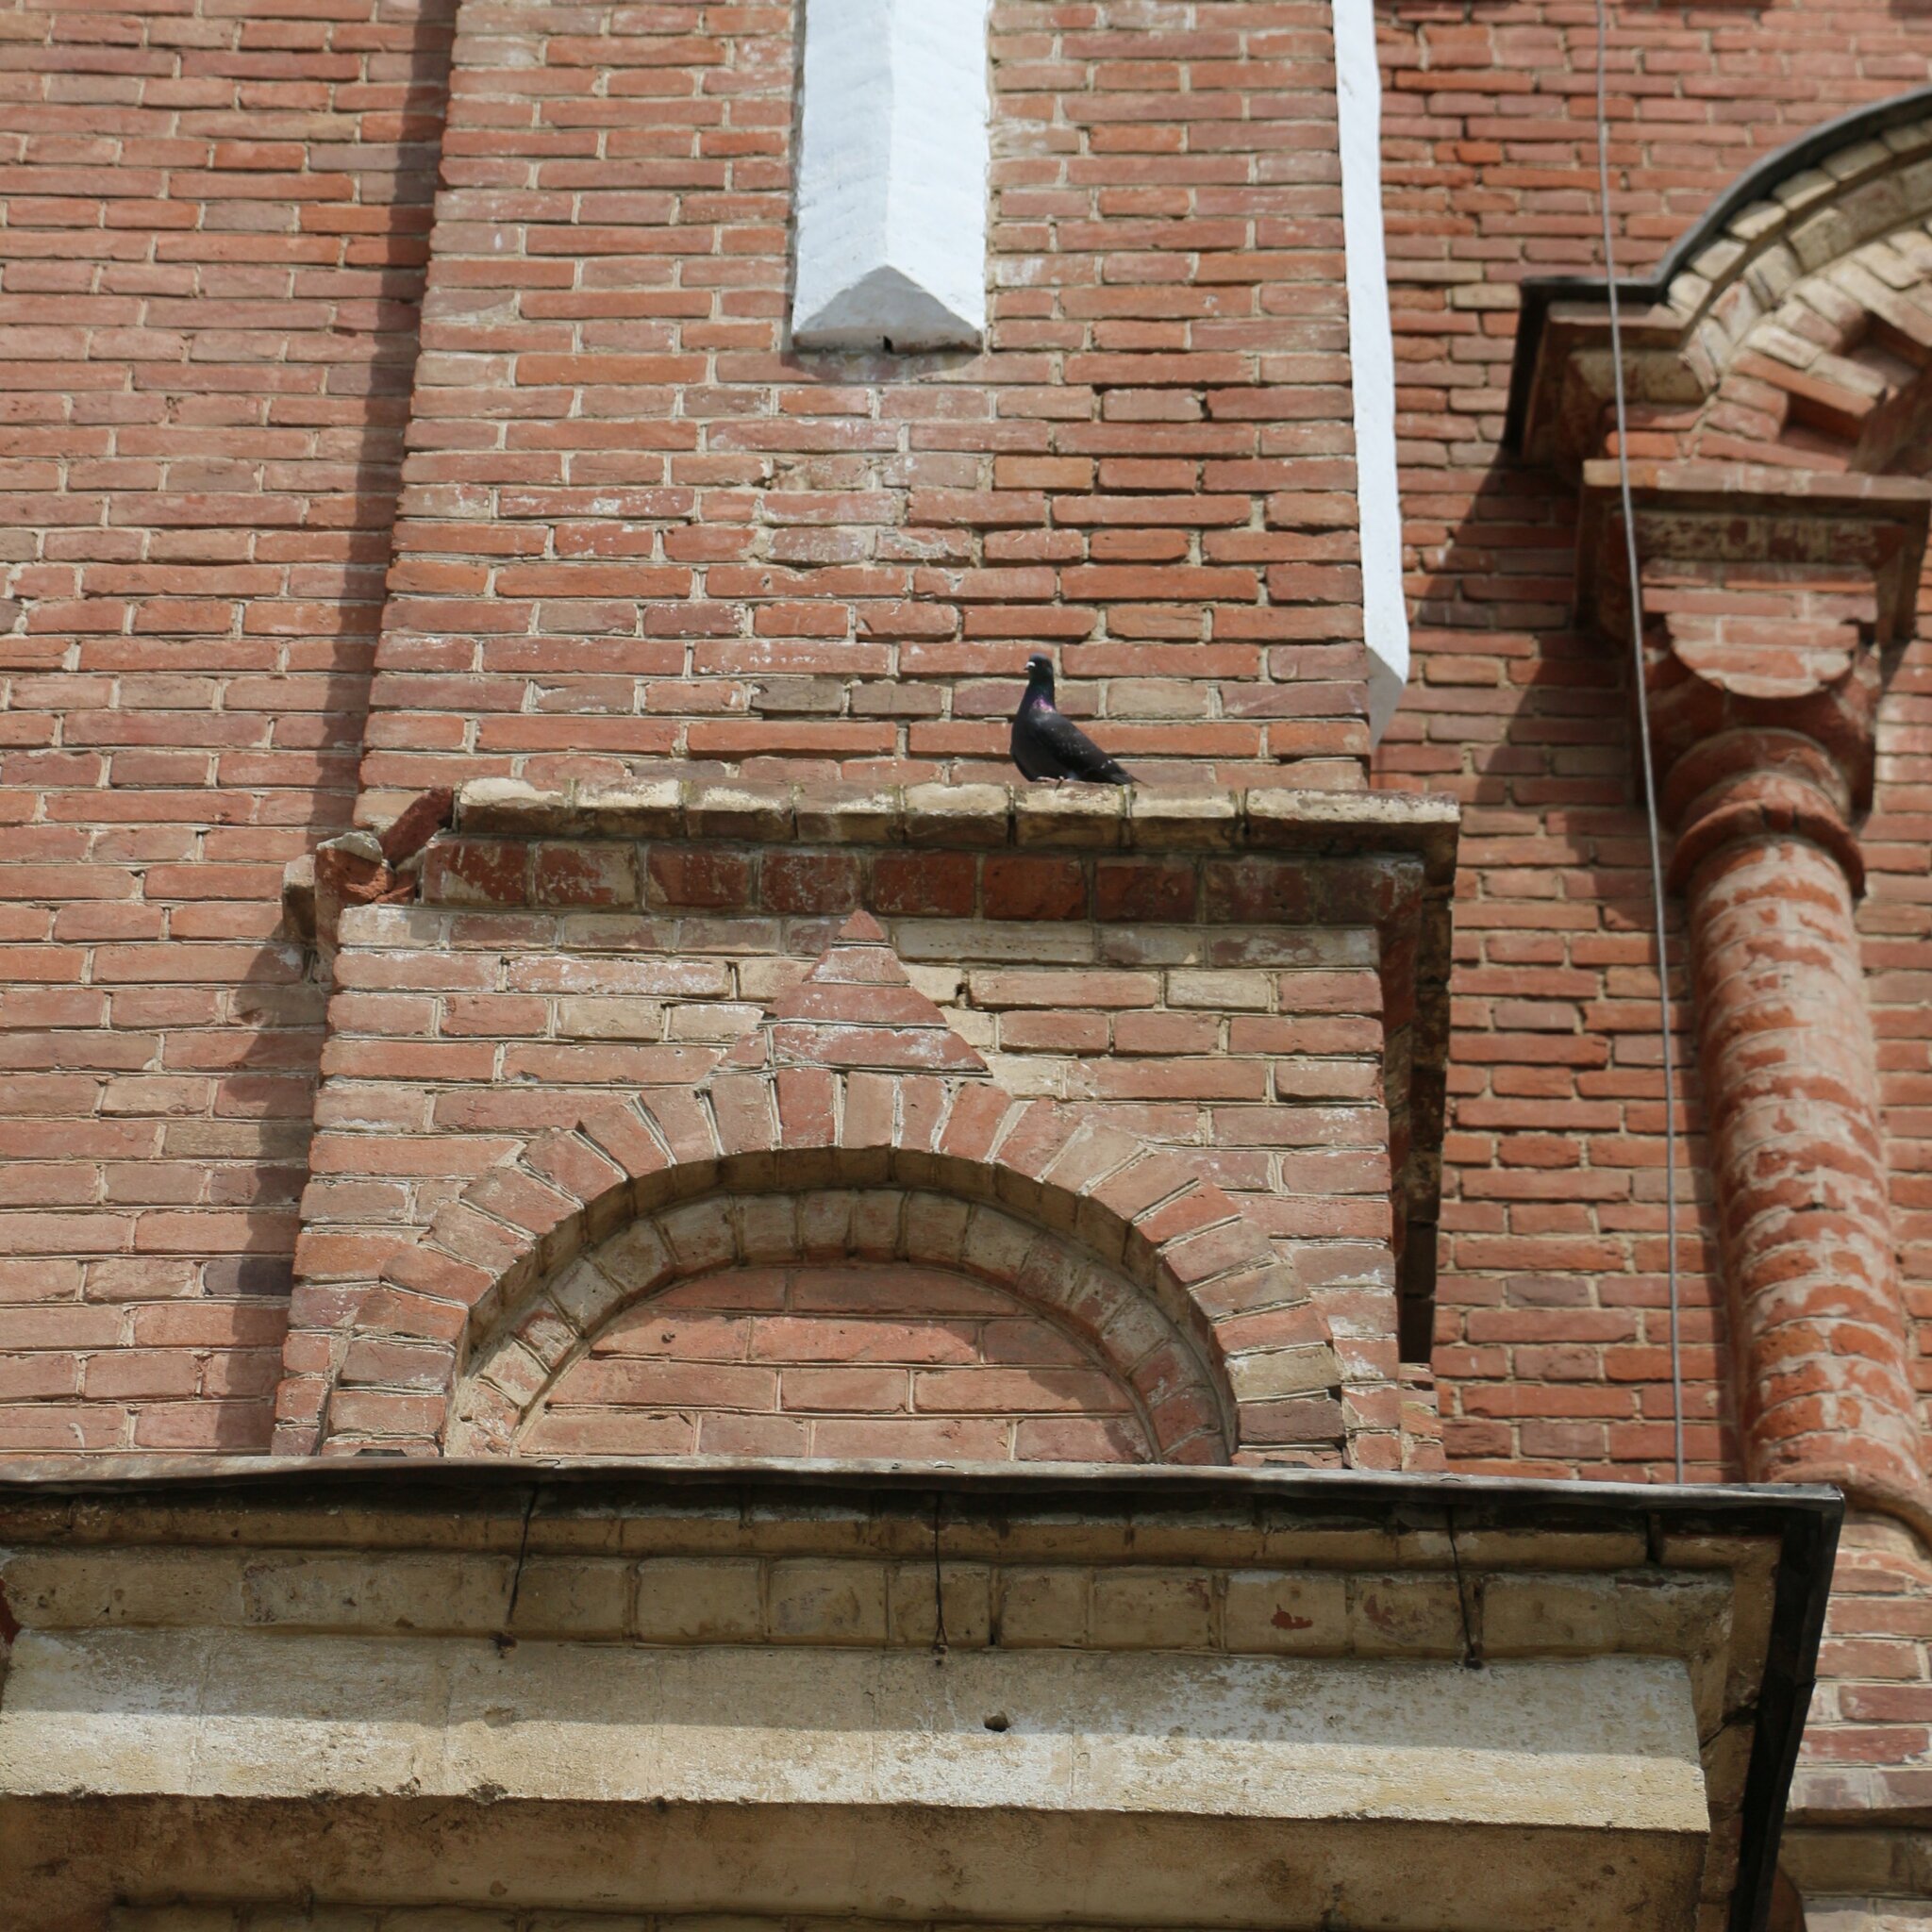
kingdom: Animalia
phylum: Chordata
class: Aves
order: Columbiformes
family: Columbidae
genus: Columba
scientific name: Columba livia
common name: Rock pigeon
